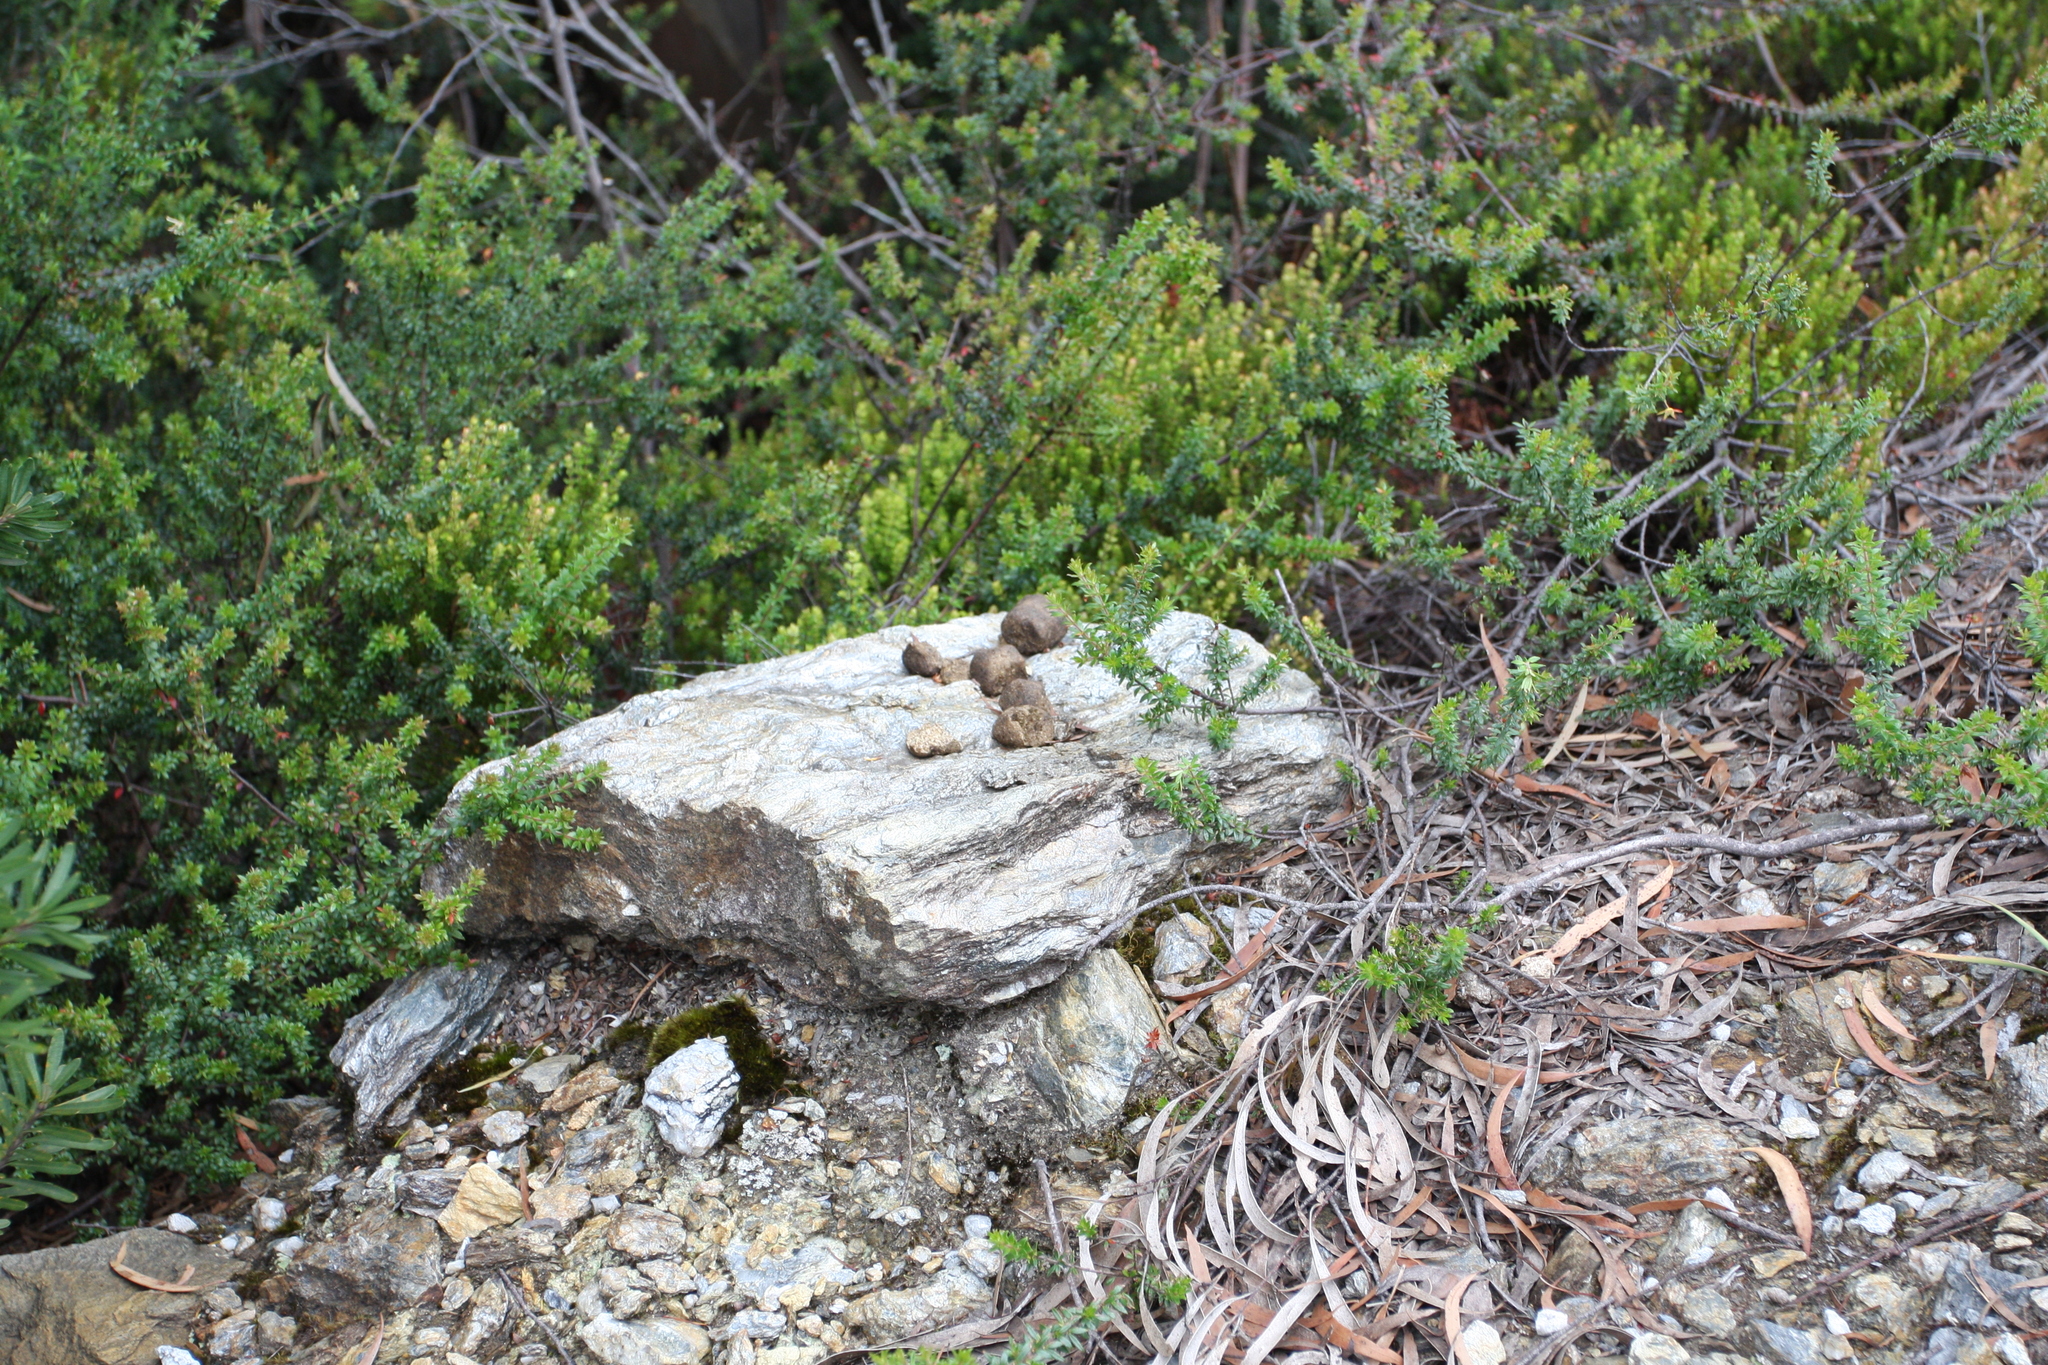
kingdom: Animalia
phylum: Chordata
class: Mammalia
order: Diprotodontia
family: Vombatidae
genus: Vombatus
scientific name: Vombatus ursinus
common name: Common wombat
